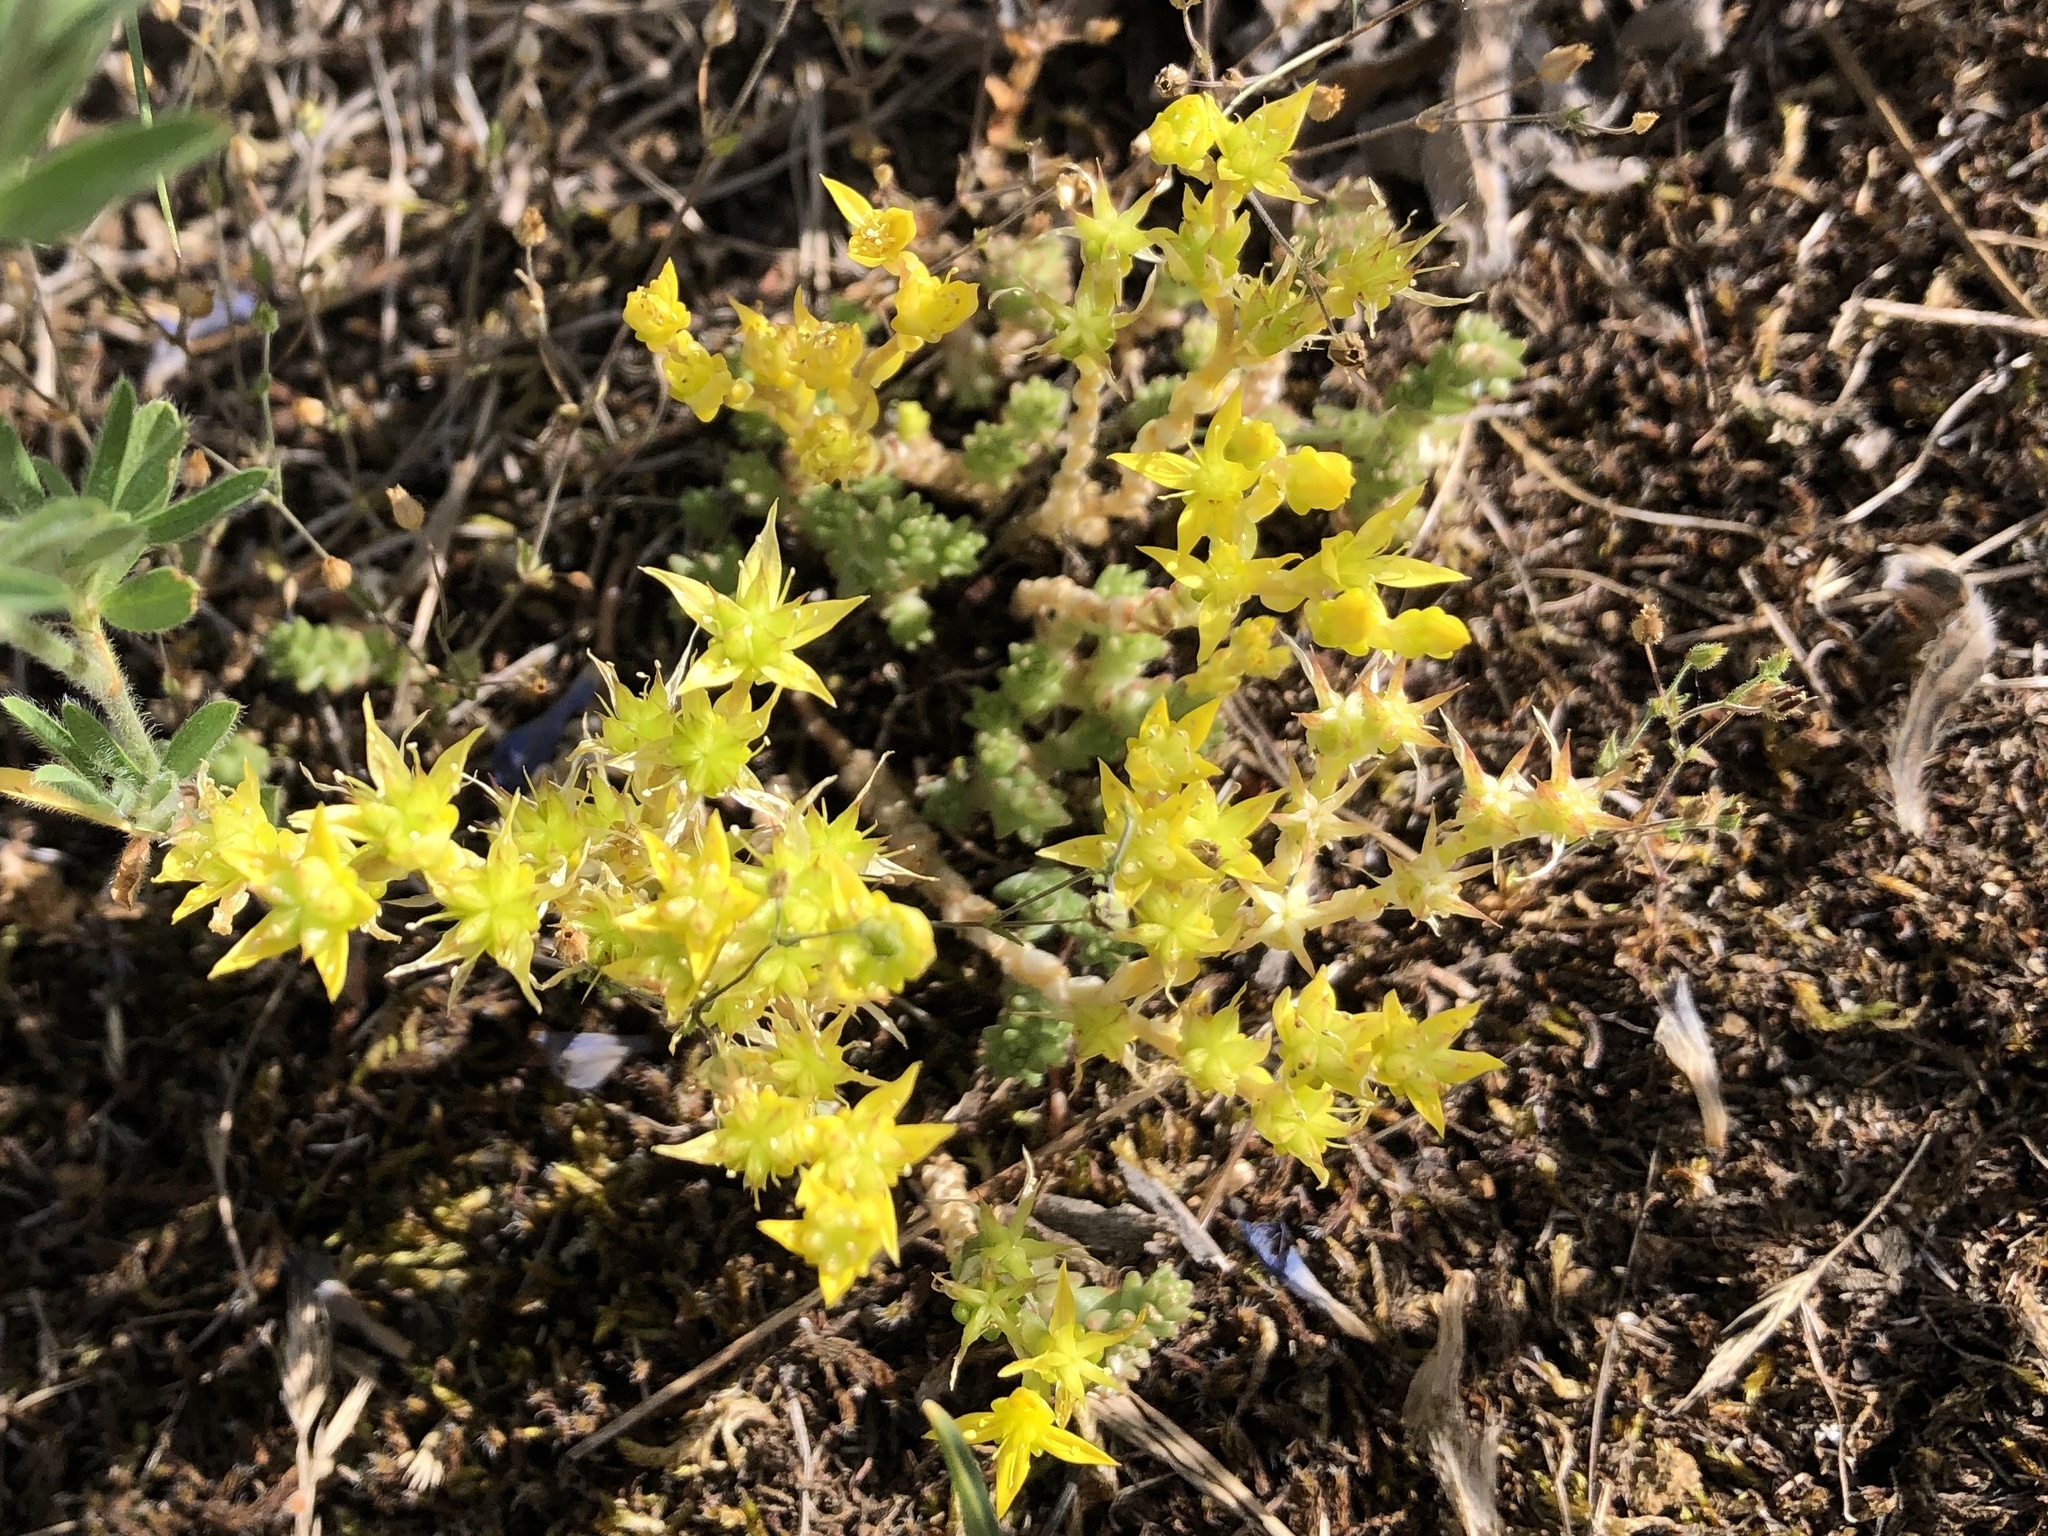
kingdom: Plantae
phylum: Tracheophyta
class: Magnoliopsida
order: Saxifragales
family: Crassulaceae
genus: Sedum
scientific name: Sedum acre
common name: Biting stonecrop
